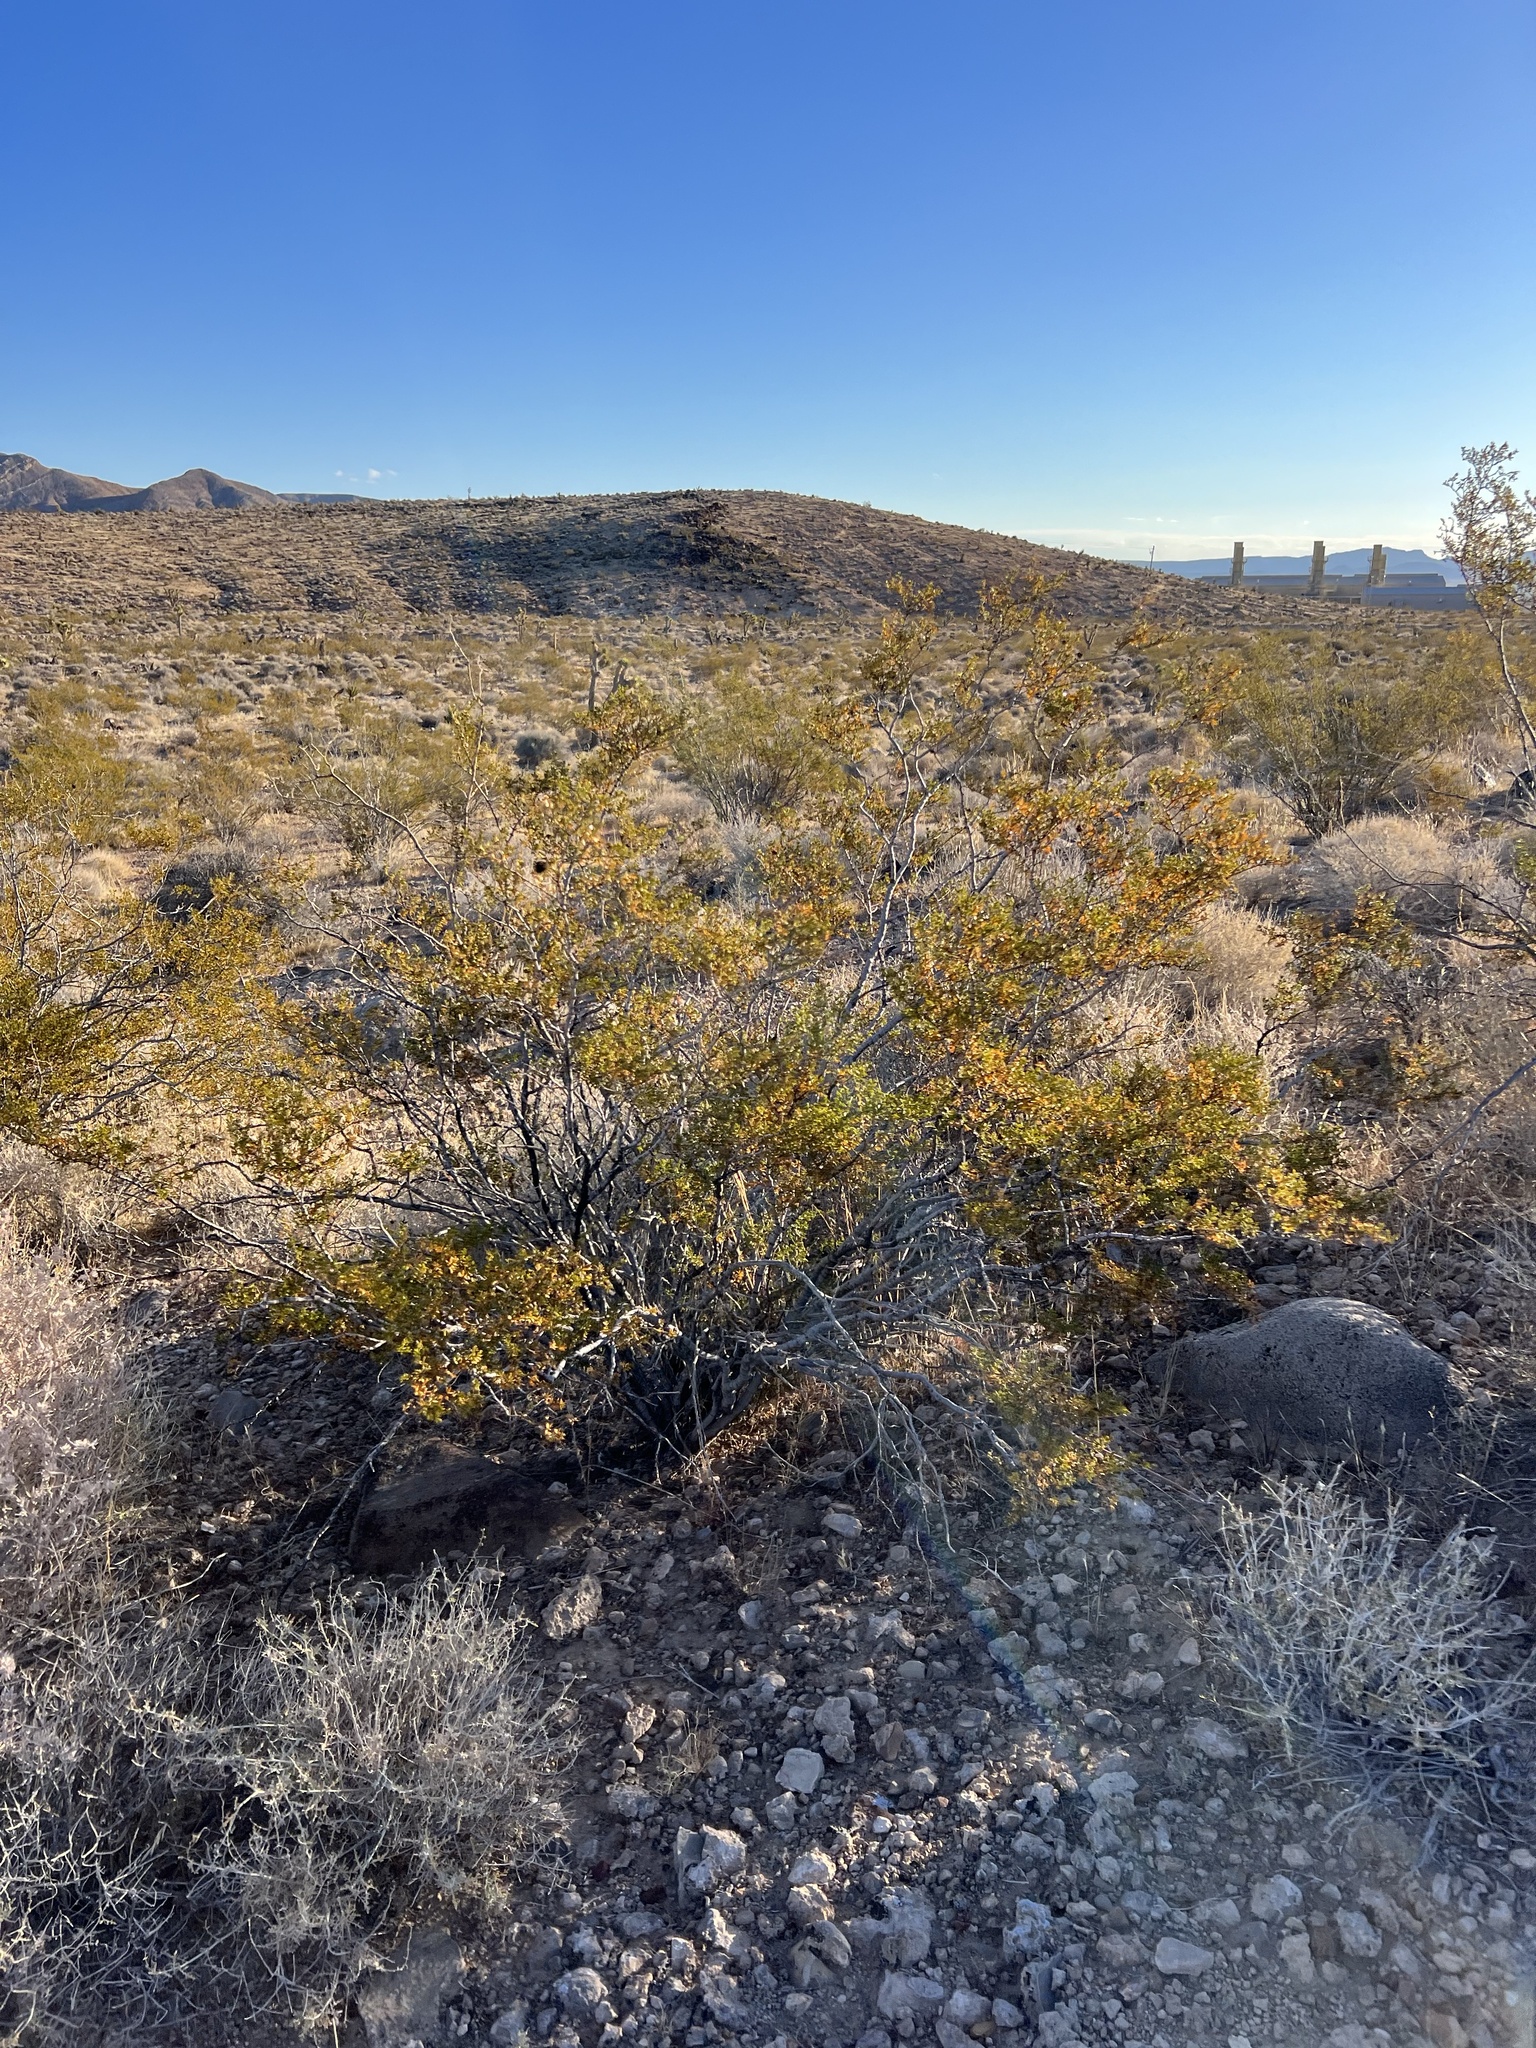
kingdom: Plantae
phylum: Tracheophyta
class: Magnoliopsida
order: Zygophyllales
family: Zygophyllaceae
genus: Larrea
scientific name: Larrea tridentata
